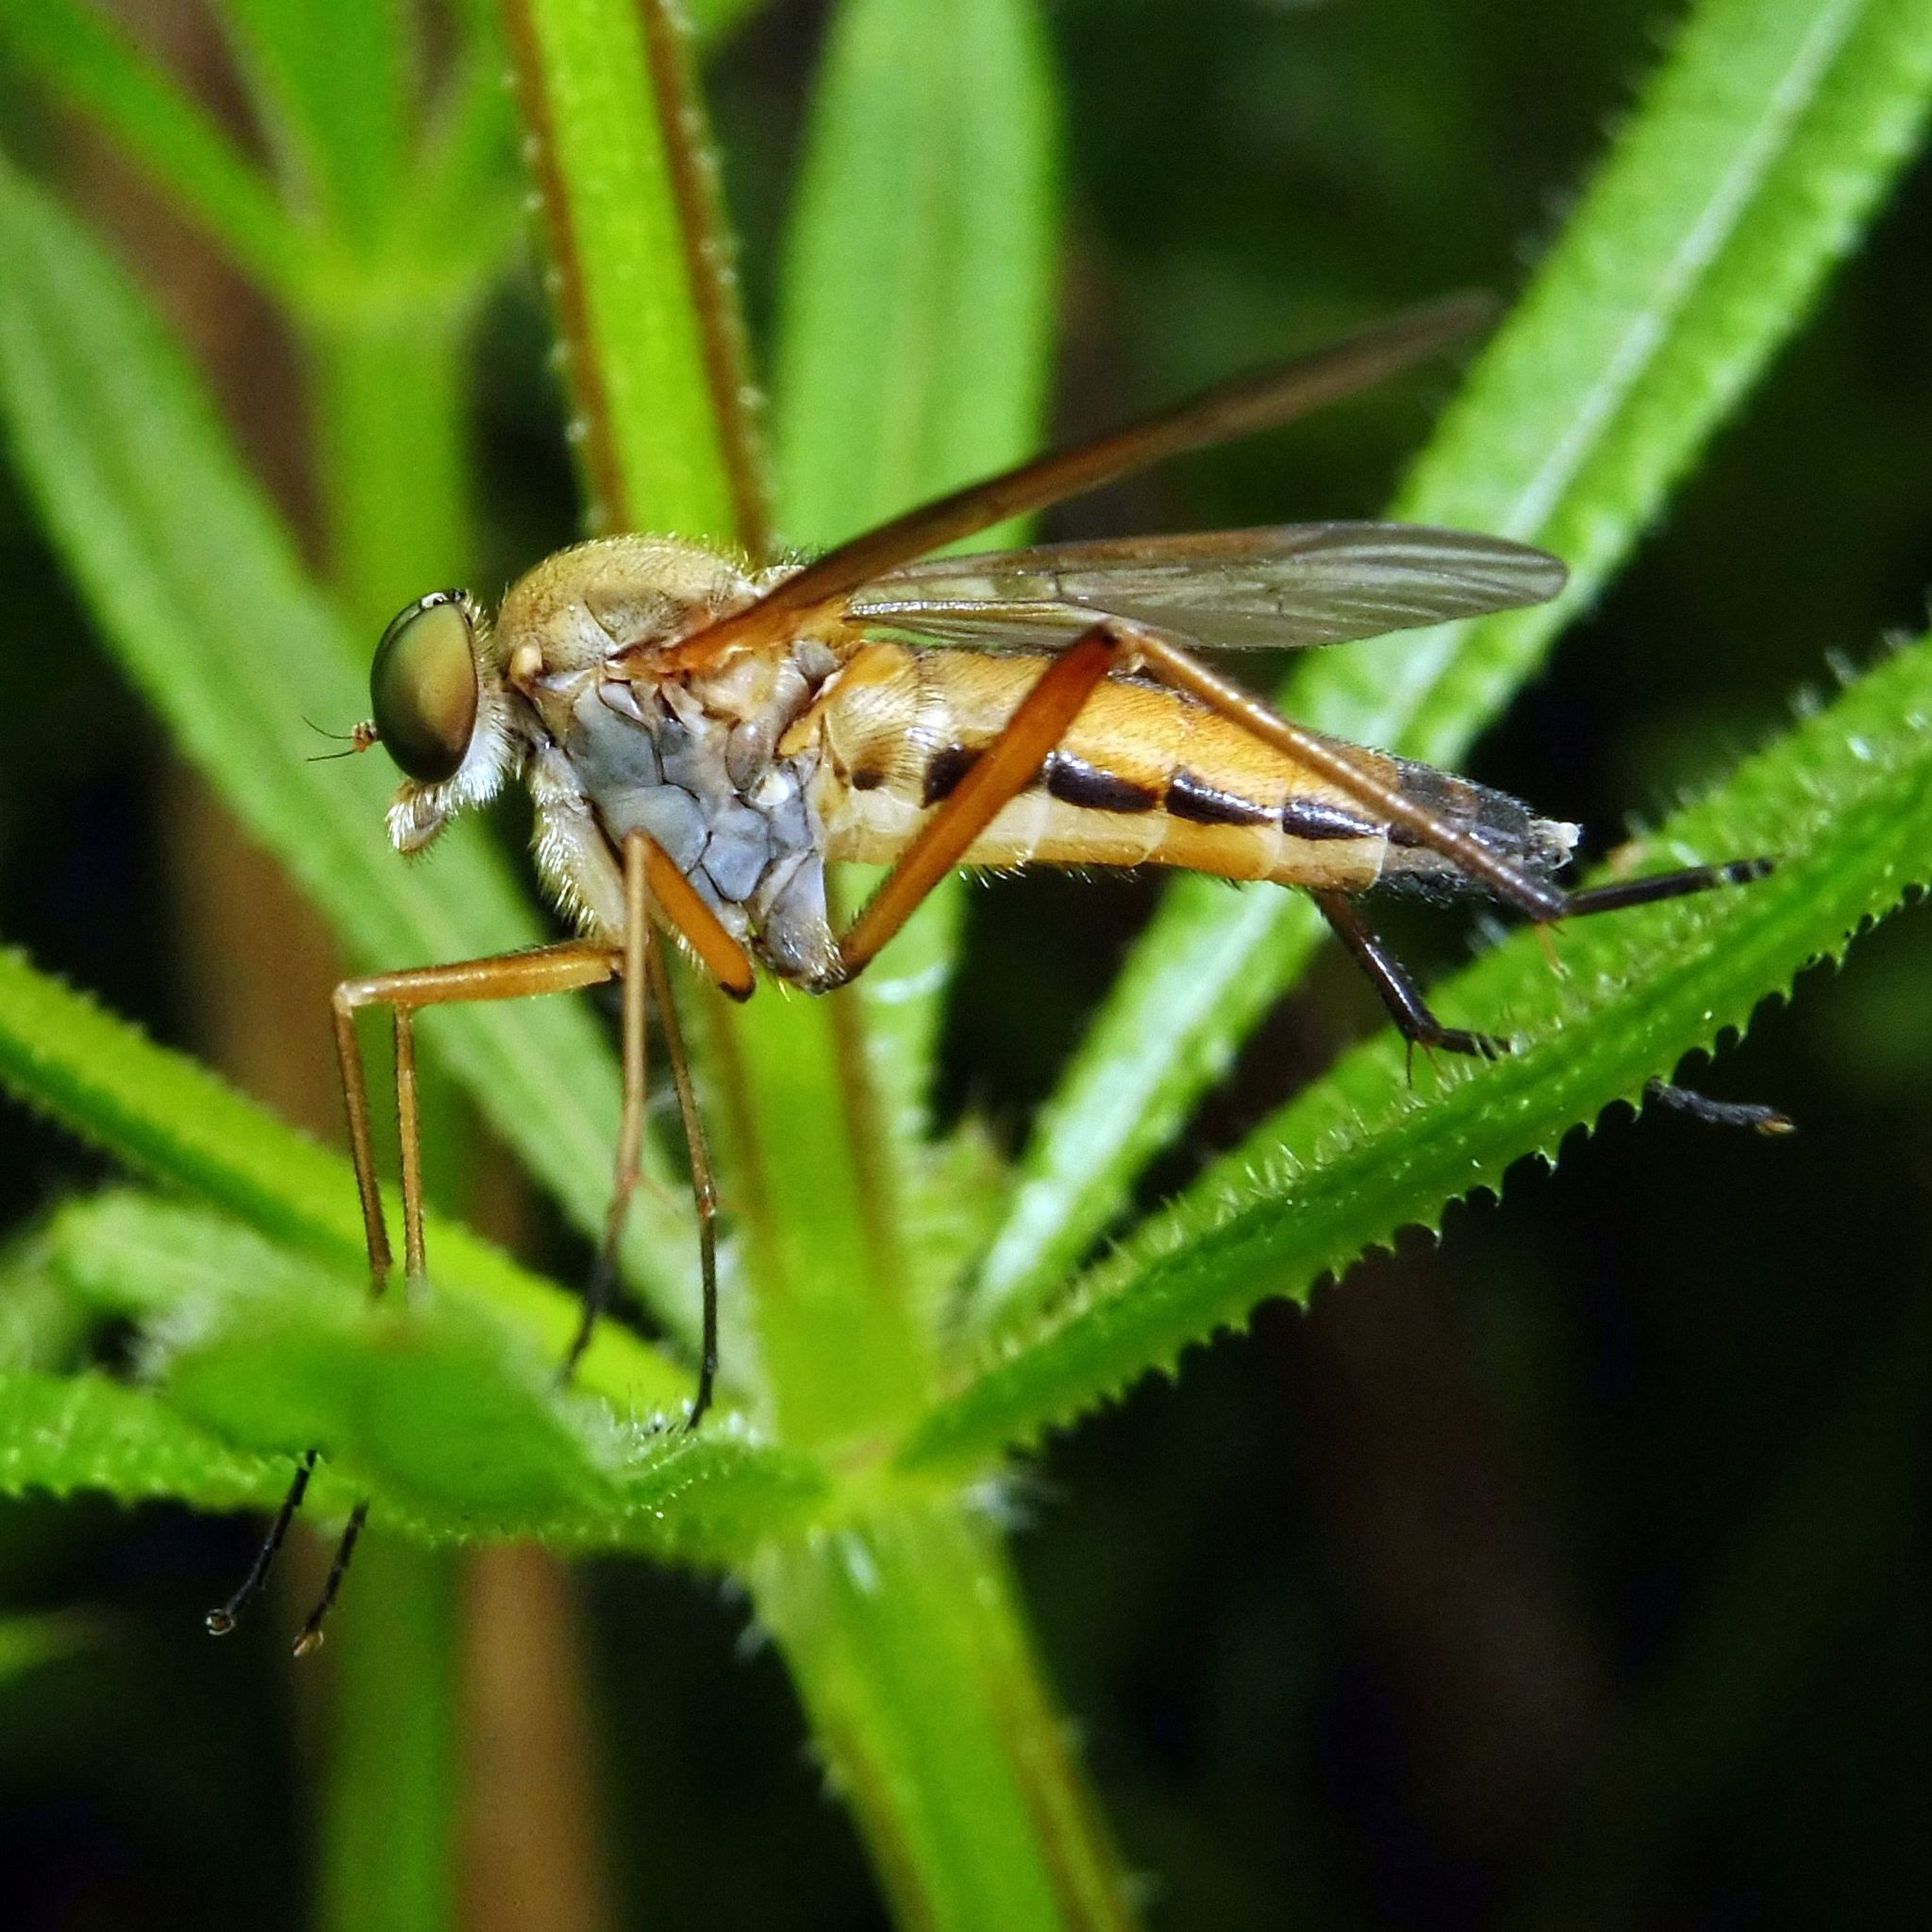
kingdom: Animalia
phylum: Arthropoda
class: Insecta
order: Diptera
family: Rhagionidae
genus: Rhagio
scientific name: Rhagio tringaria
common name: Marsh snipefly
